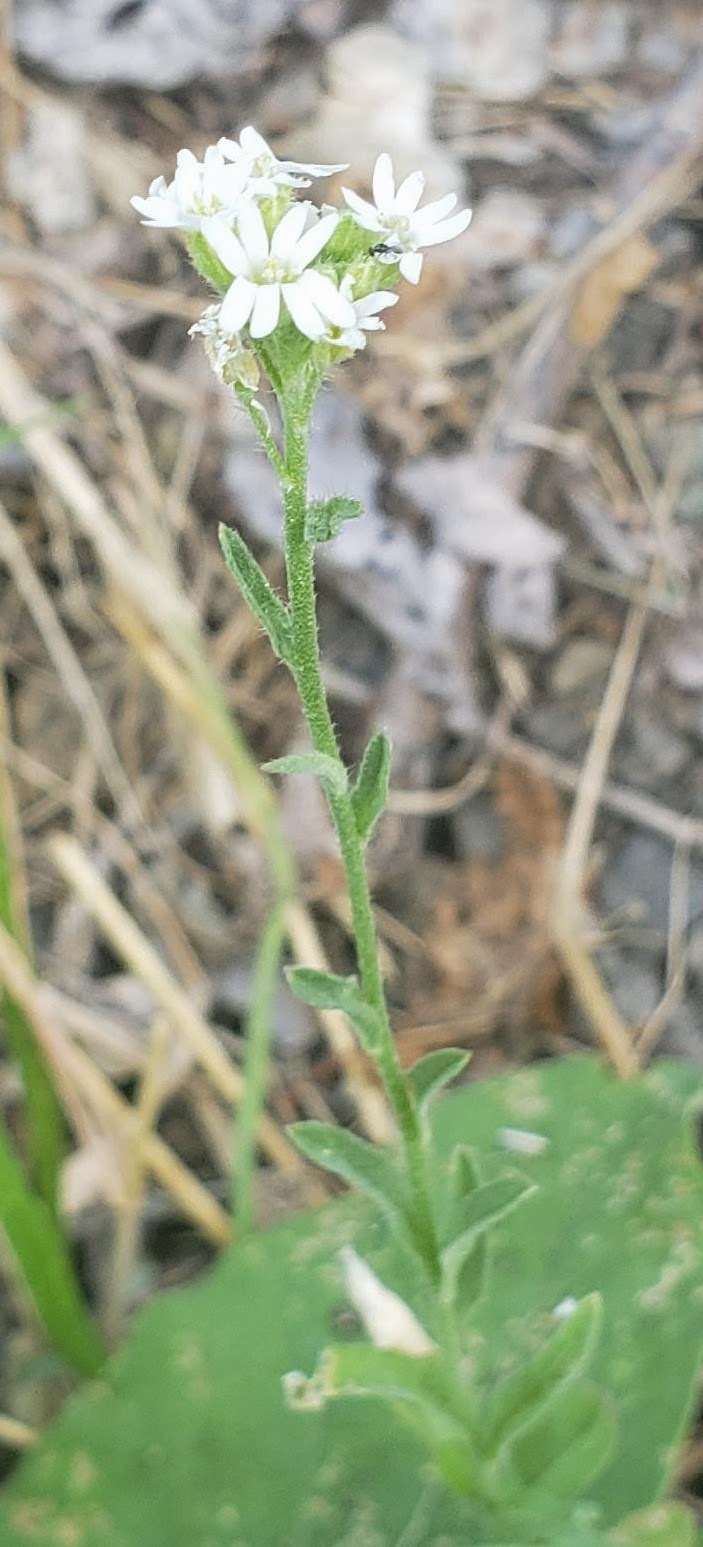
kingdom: Plantae
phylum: Tracheophyta
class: Magnoliopsida
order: Brassicales
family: Brassicaceae
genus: Berteroa
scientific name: Berteroa incana
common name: Hoary alison
